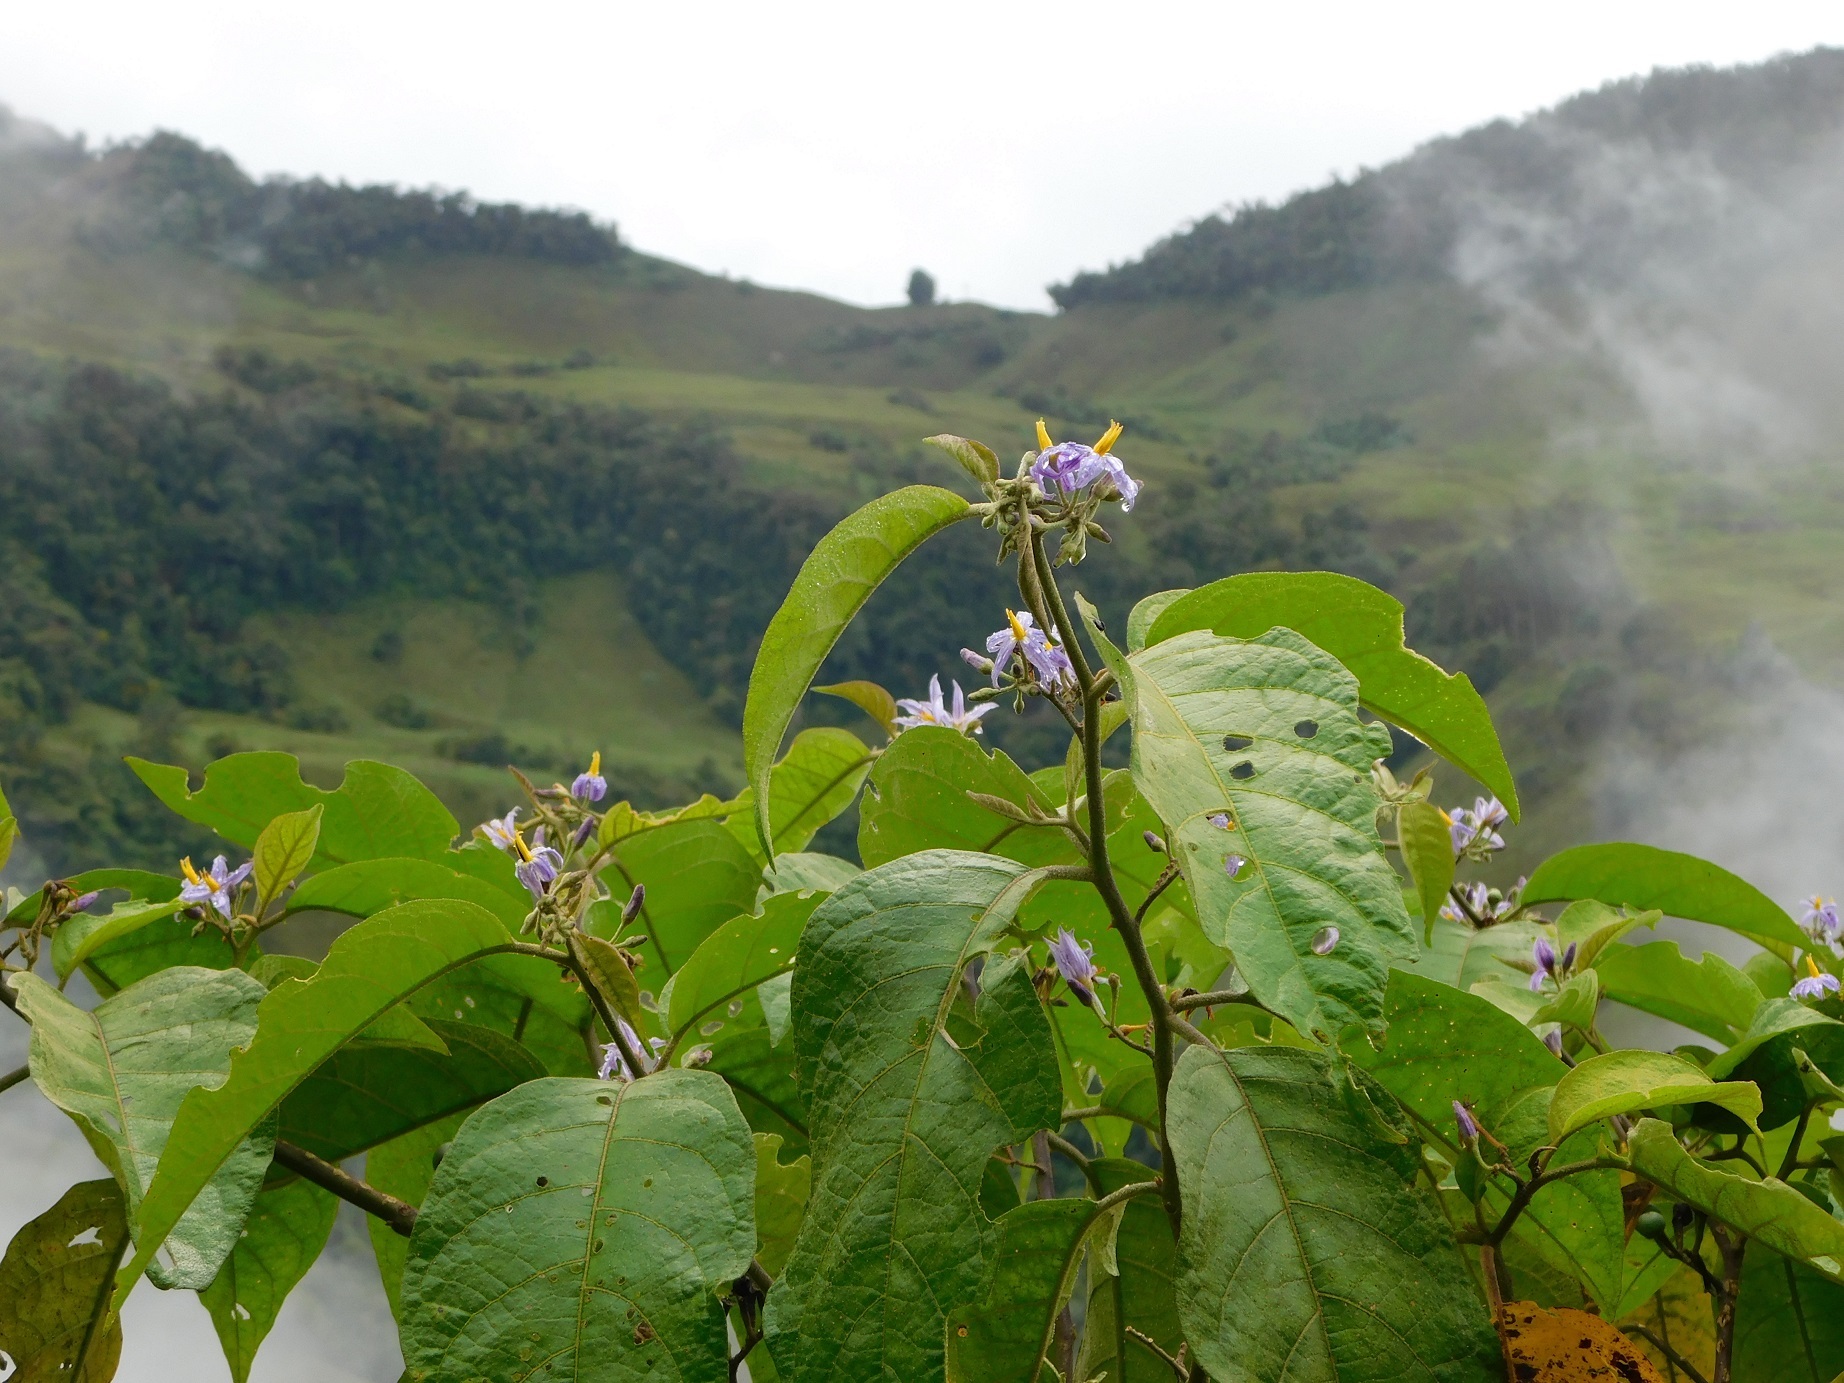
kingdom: Plantae
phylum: Tracheophyta
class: Magnoliopsida
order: Solanales
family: Solanaceae
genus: Solanum
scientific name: Solanum ovalifolium
